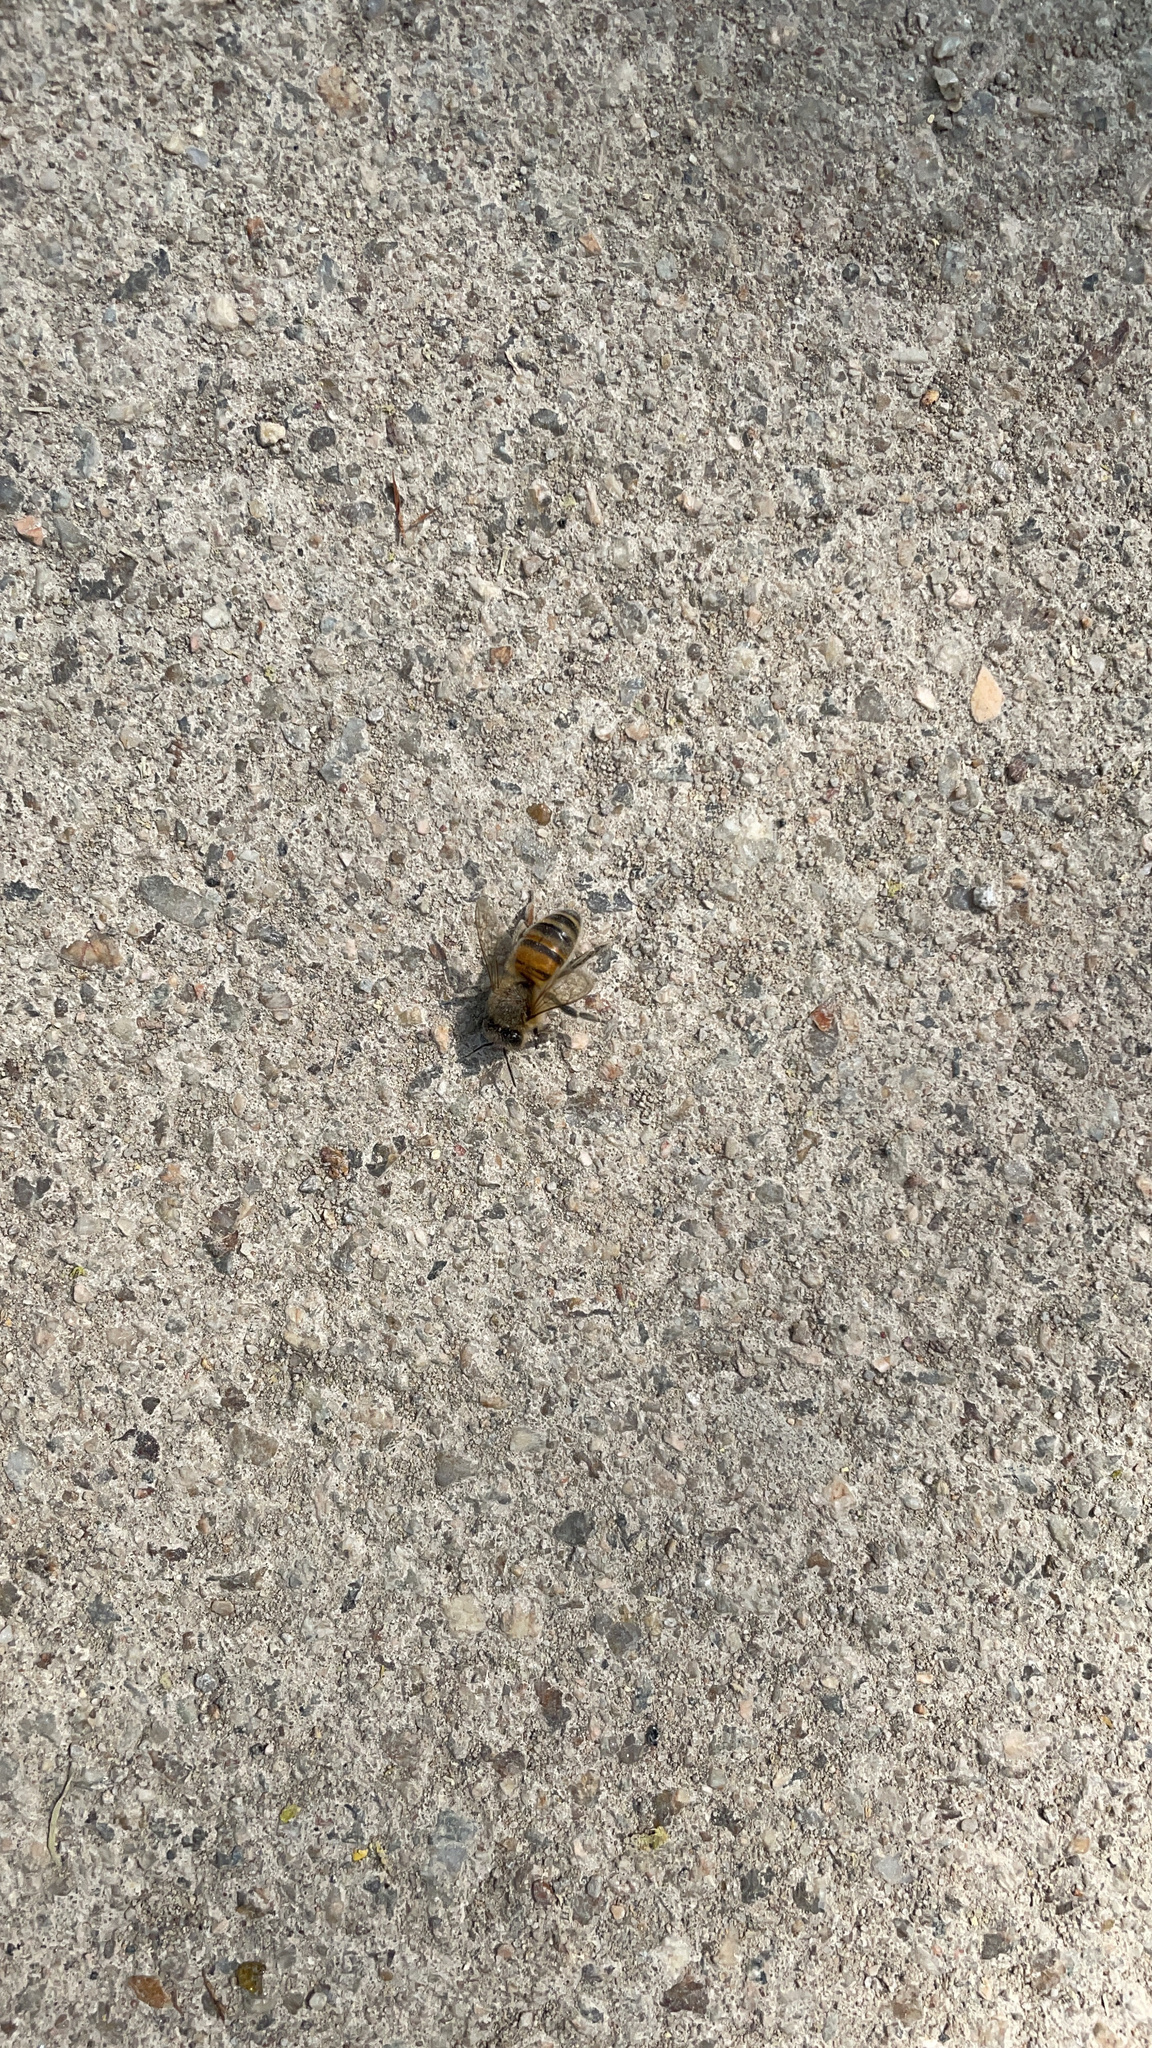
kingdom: Animalia
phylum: Arthropoda
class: Insecta
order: Hymenoptera
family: Apidae
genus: Apis
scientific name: Apis mellifera
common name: Honey bee
